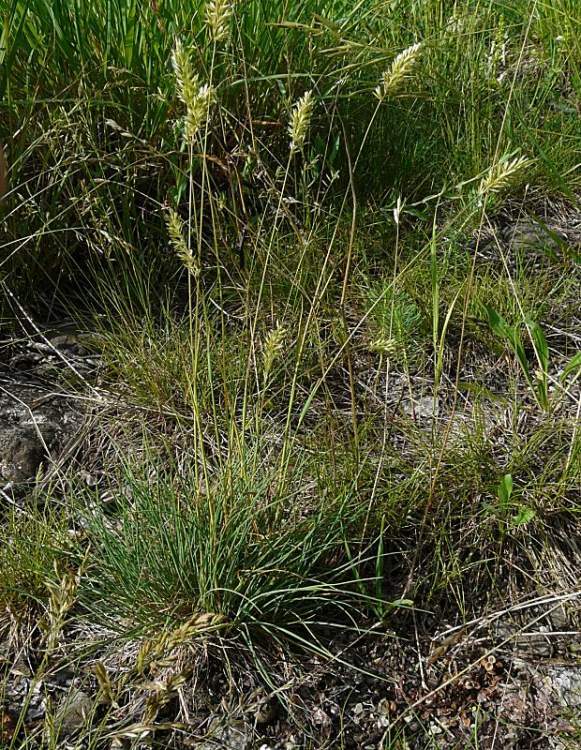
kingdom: Plantae
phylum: Tracheophyta
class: Liliopsida
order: Poales
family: Poaceae
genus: Koeleria
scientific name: Koeleria macrantha
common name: Crested hair-grass
